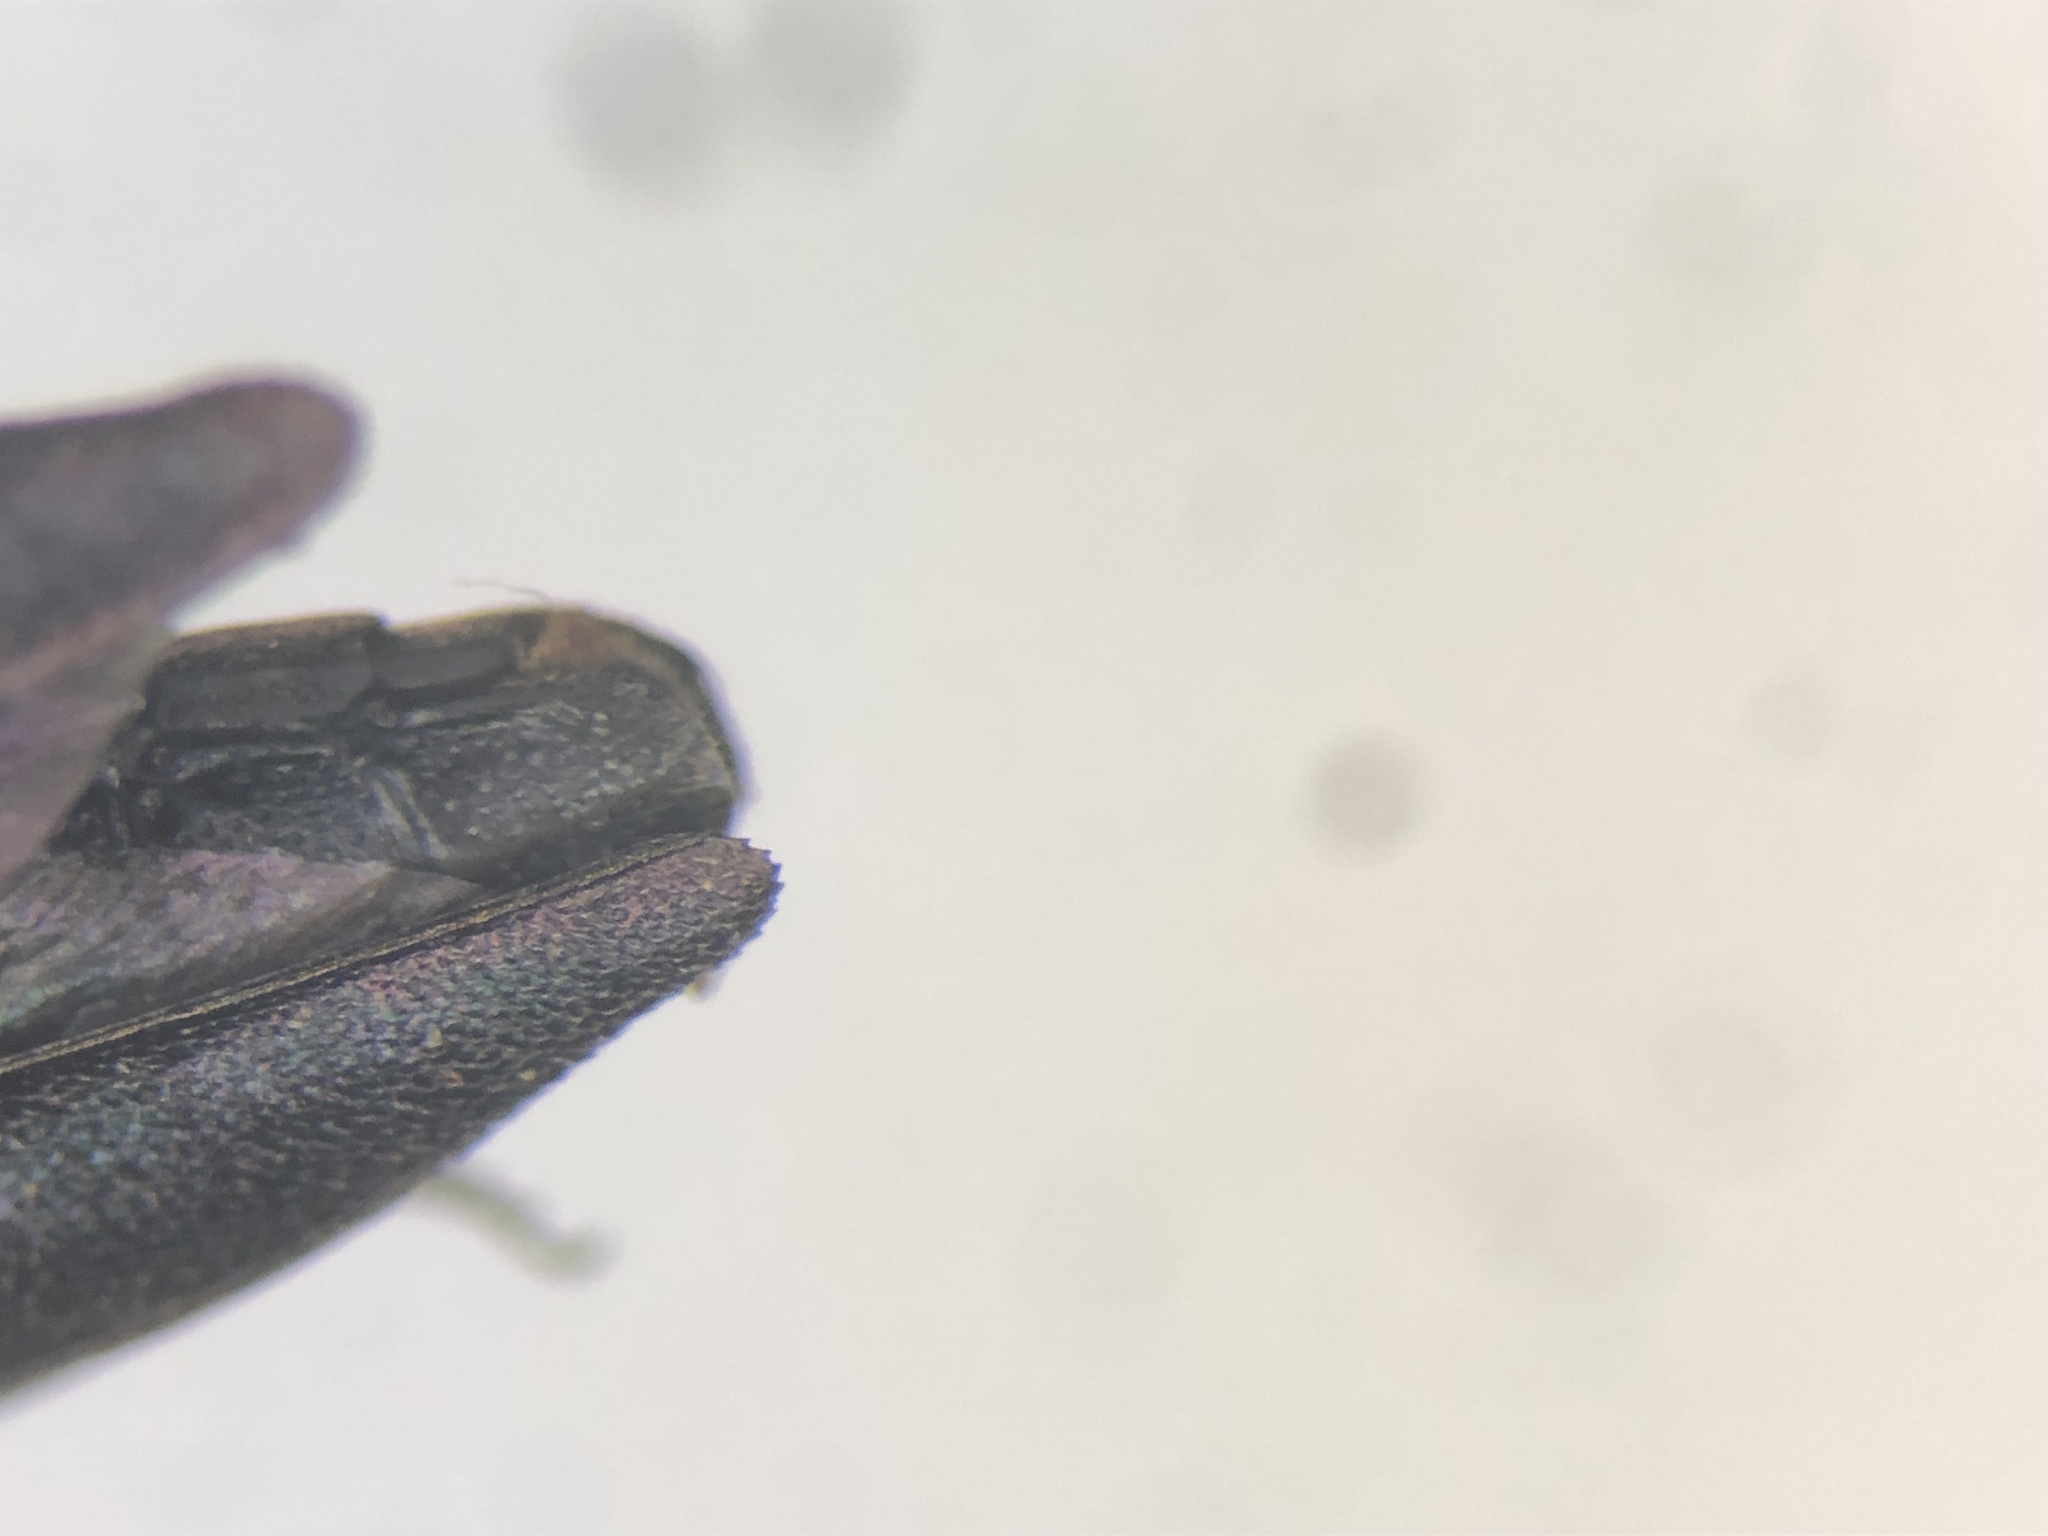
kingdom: Animalia
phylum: Arthropoda
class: Insecta
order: Coleoptera
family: Buprestidae
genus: Agrilus
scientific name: Agrilus amelanchieri
